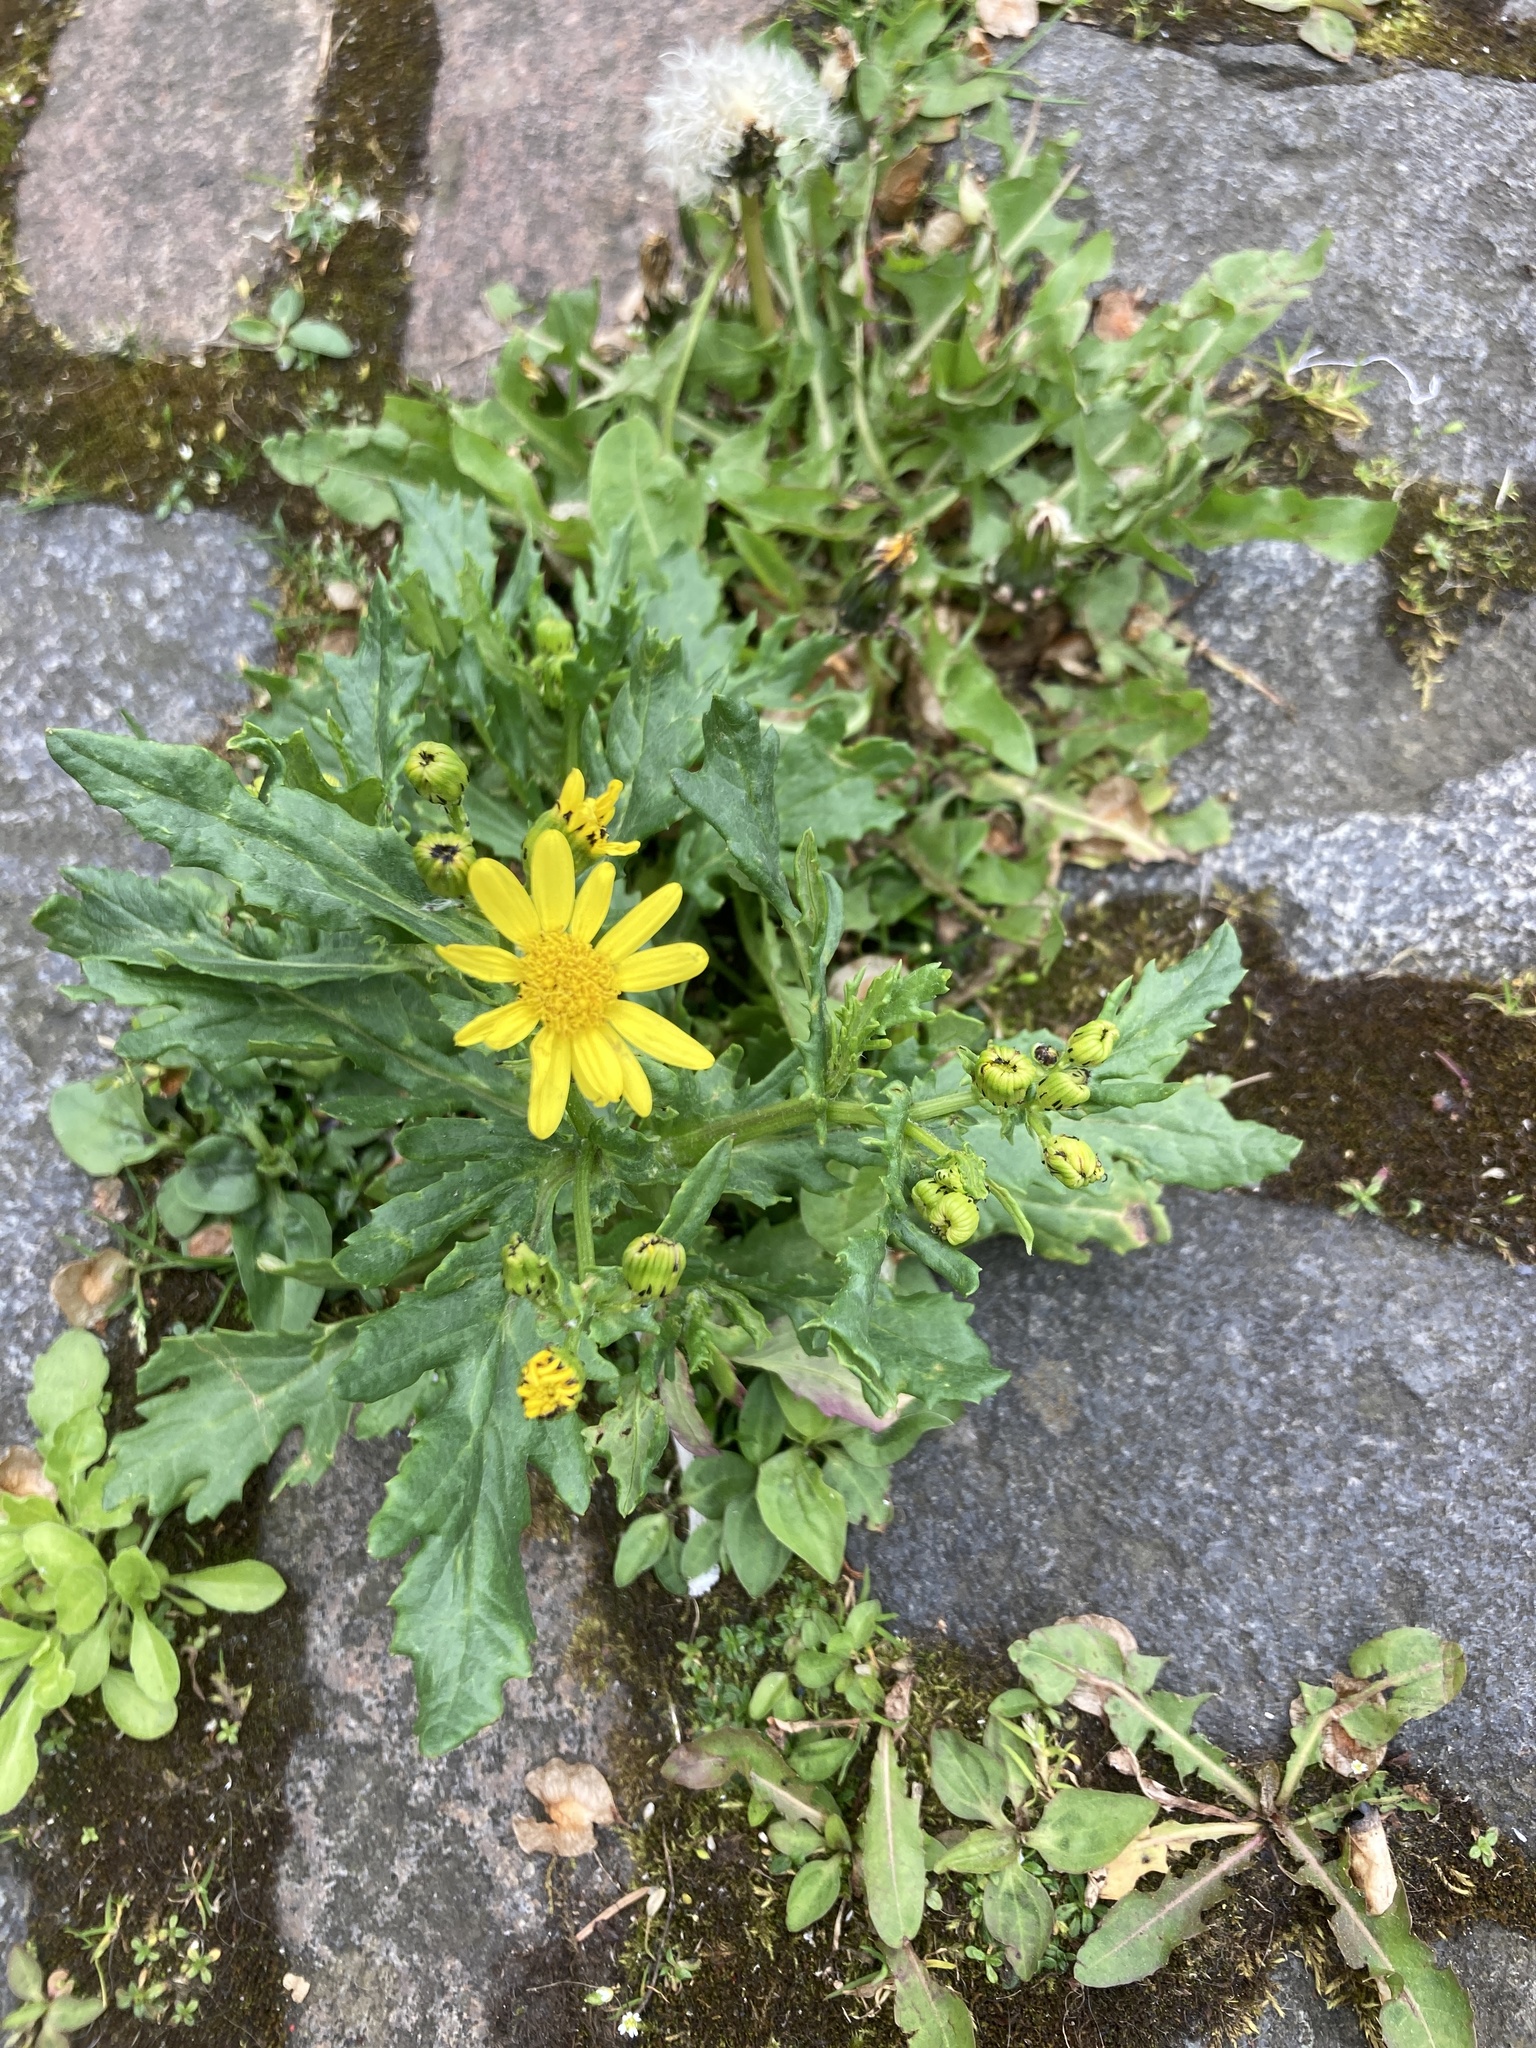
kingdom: Plantae
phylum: Tracheophyta
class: Magnoliopsida
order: Asterales
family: Asteraceae
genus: Senecio
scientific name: Senecio squalidus
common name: Oxford ragwort
